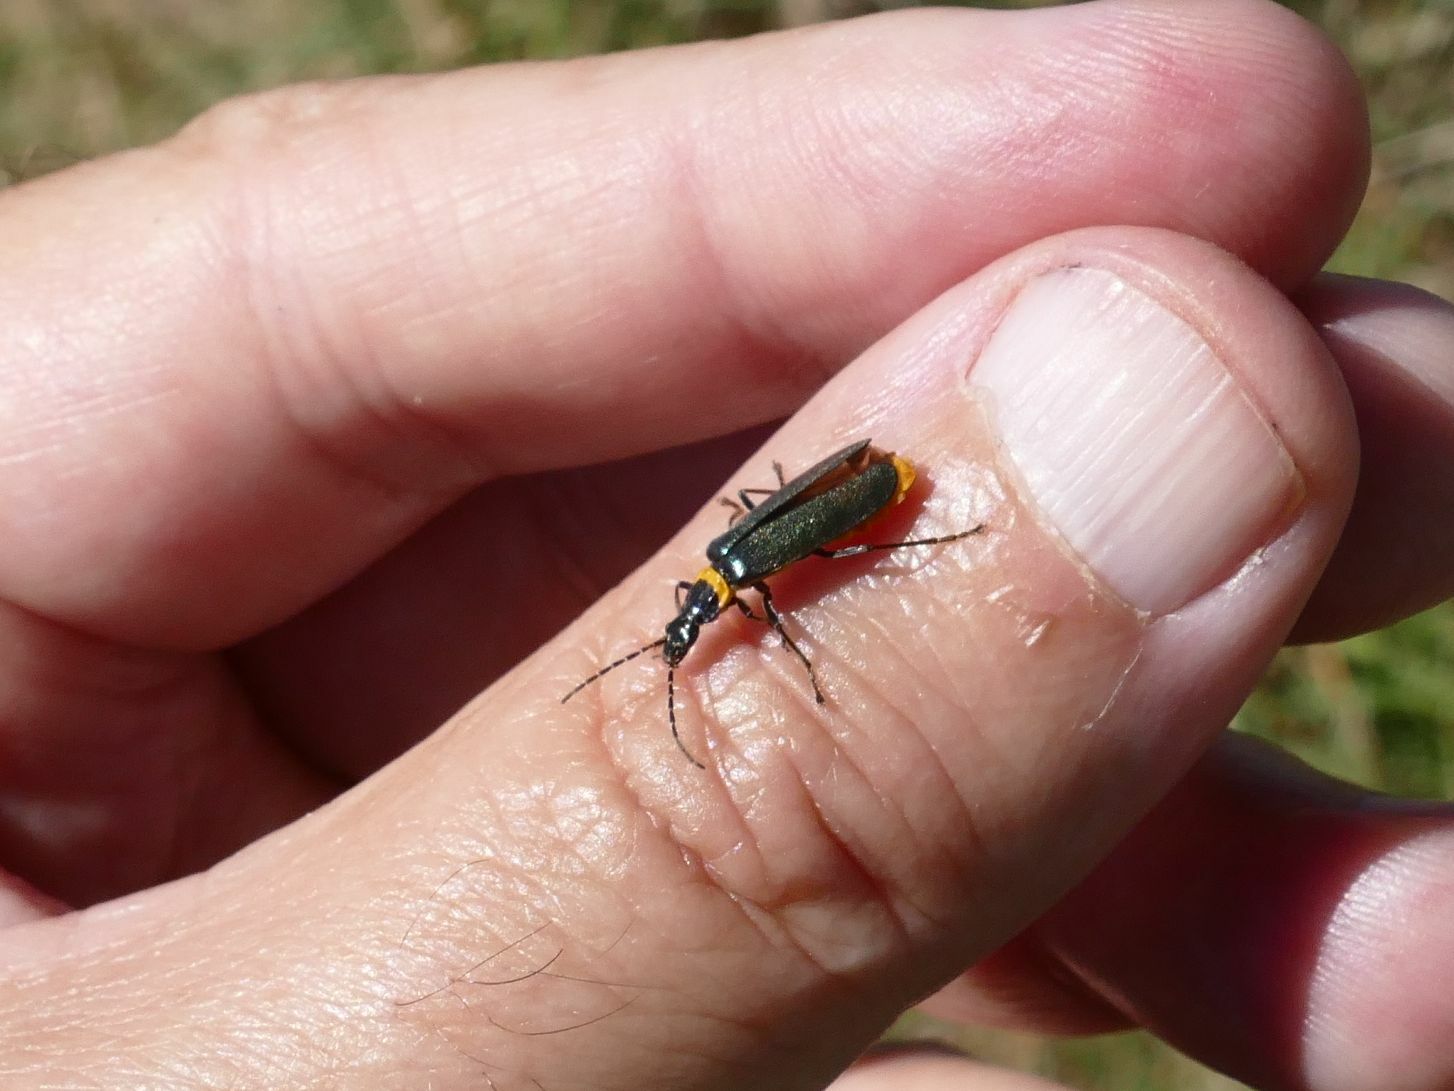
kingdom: Animalia
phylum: Arthropoda
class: Insecta
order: Coleoptera
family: Cantharidae
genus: Chauliognathus
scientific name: Chauliognathus
